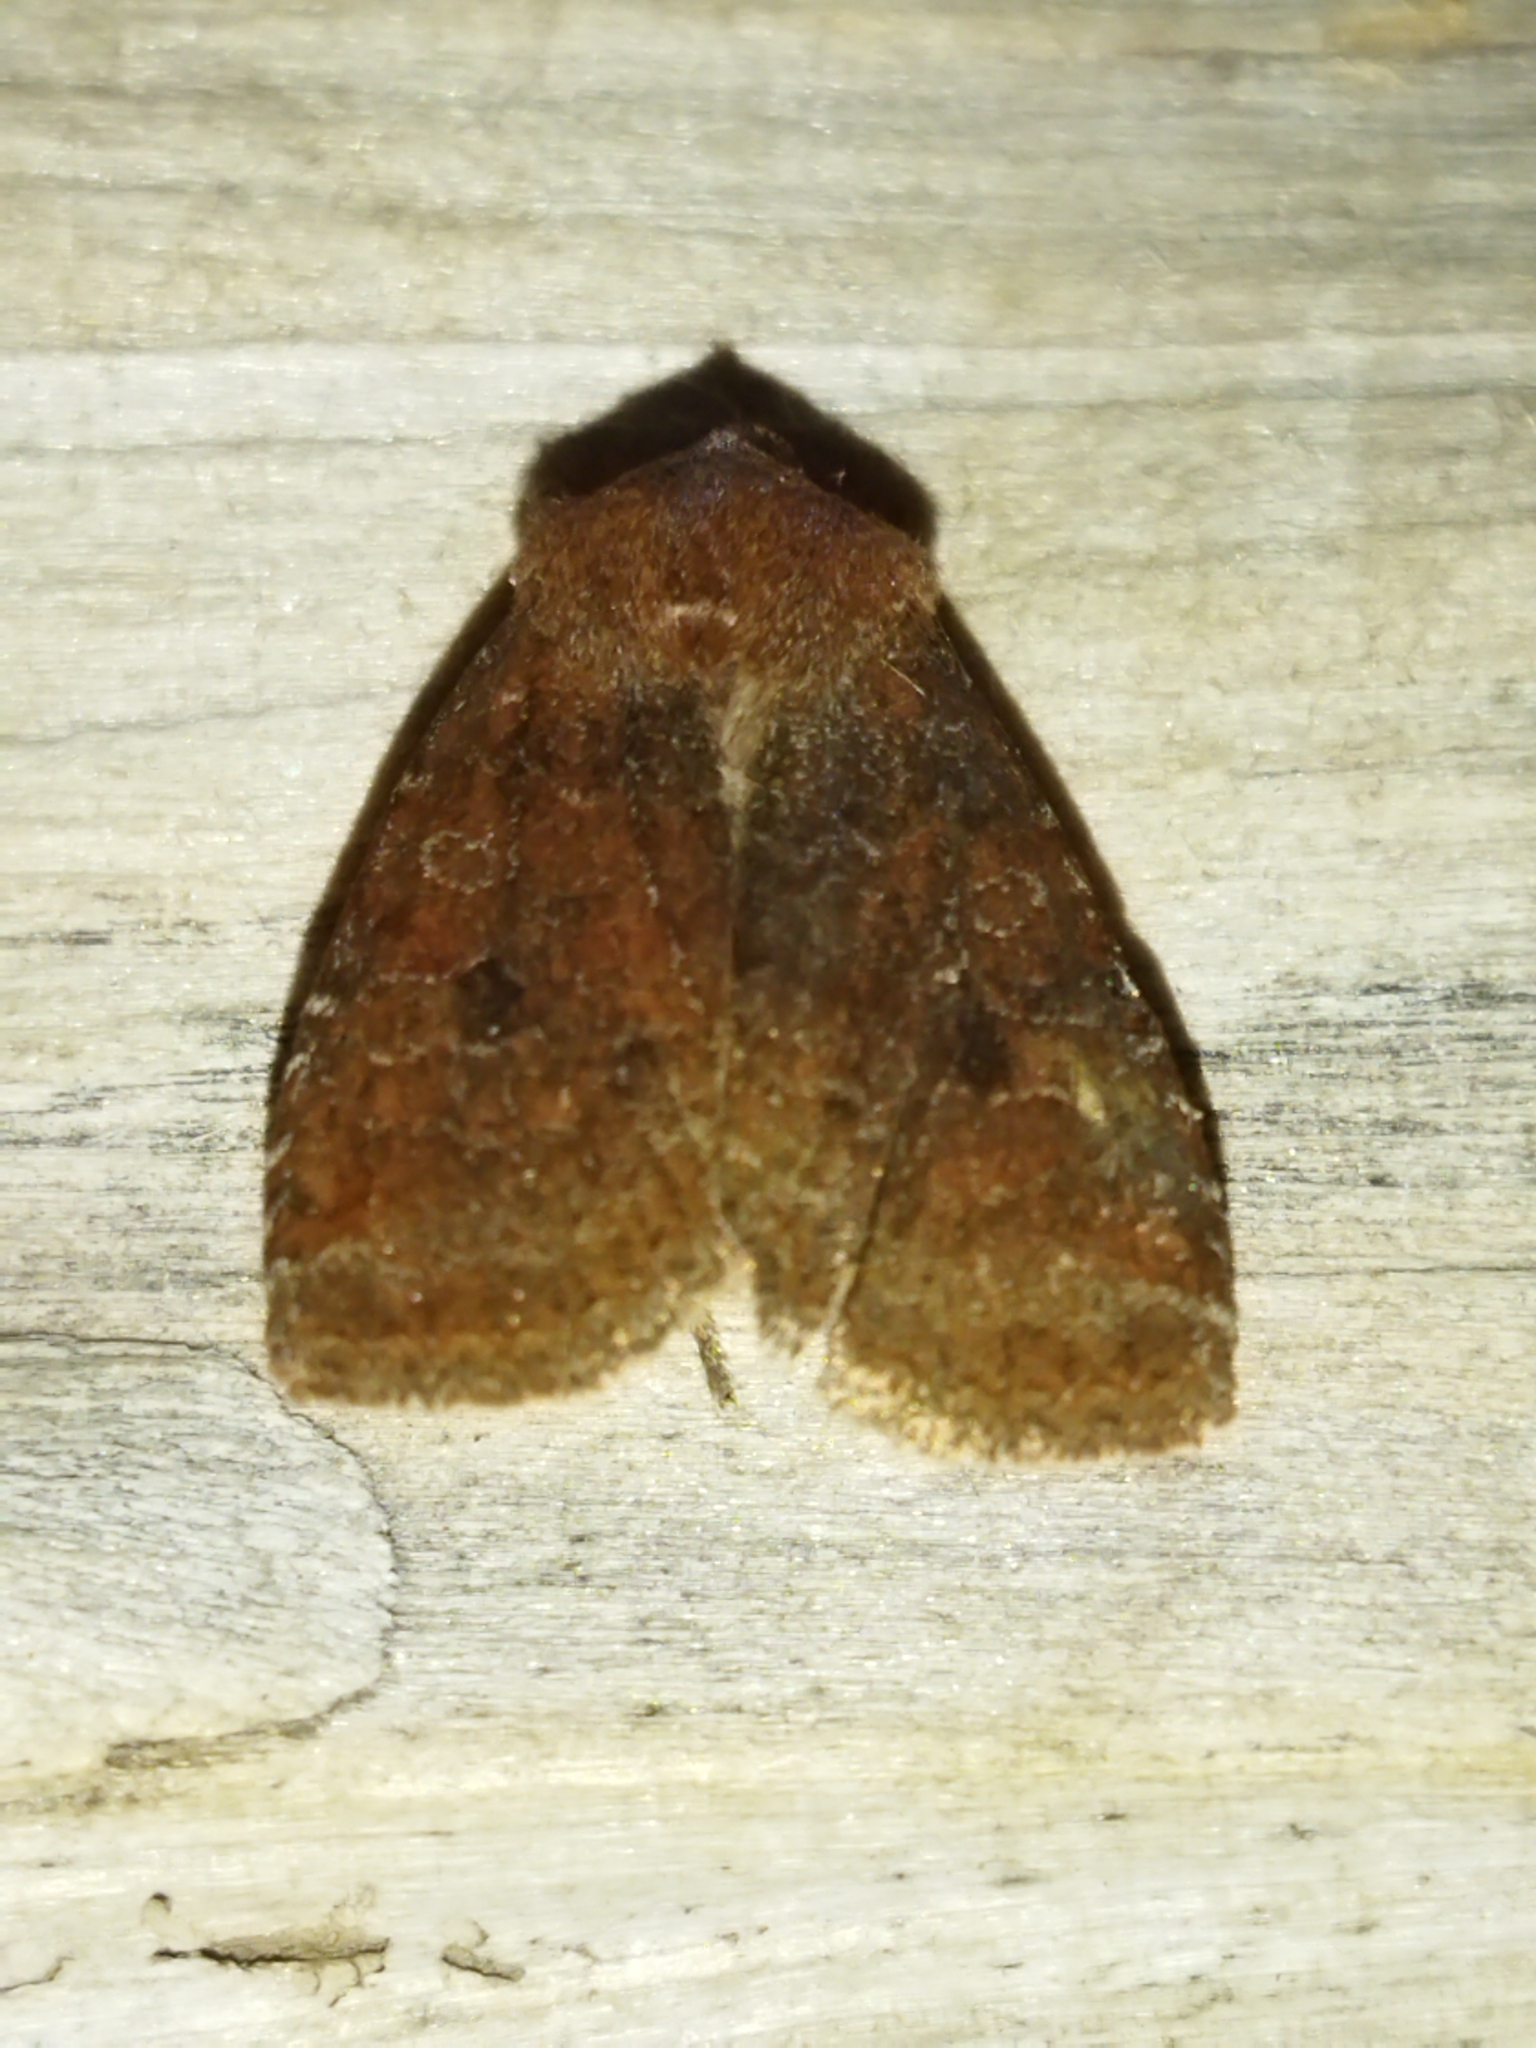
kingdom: Animalia
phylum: Arthropoda
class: Insecta
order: Lepidoptera
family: Noctuidae
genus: Conistra
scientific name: Conistra vaccinii
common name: Chestnut
